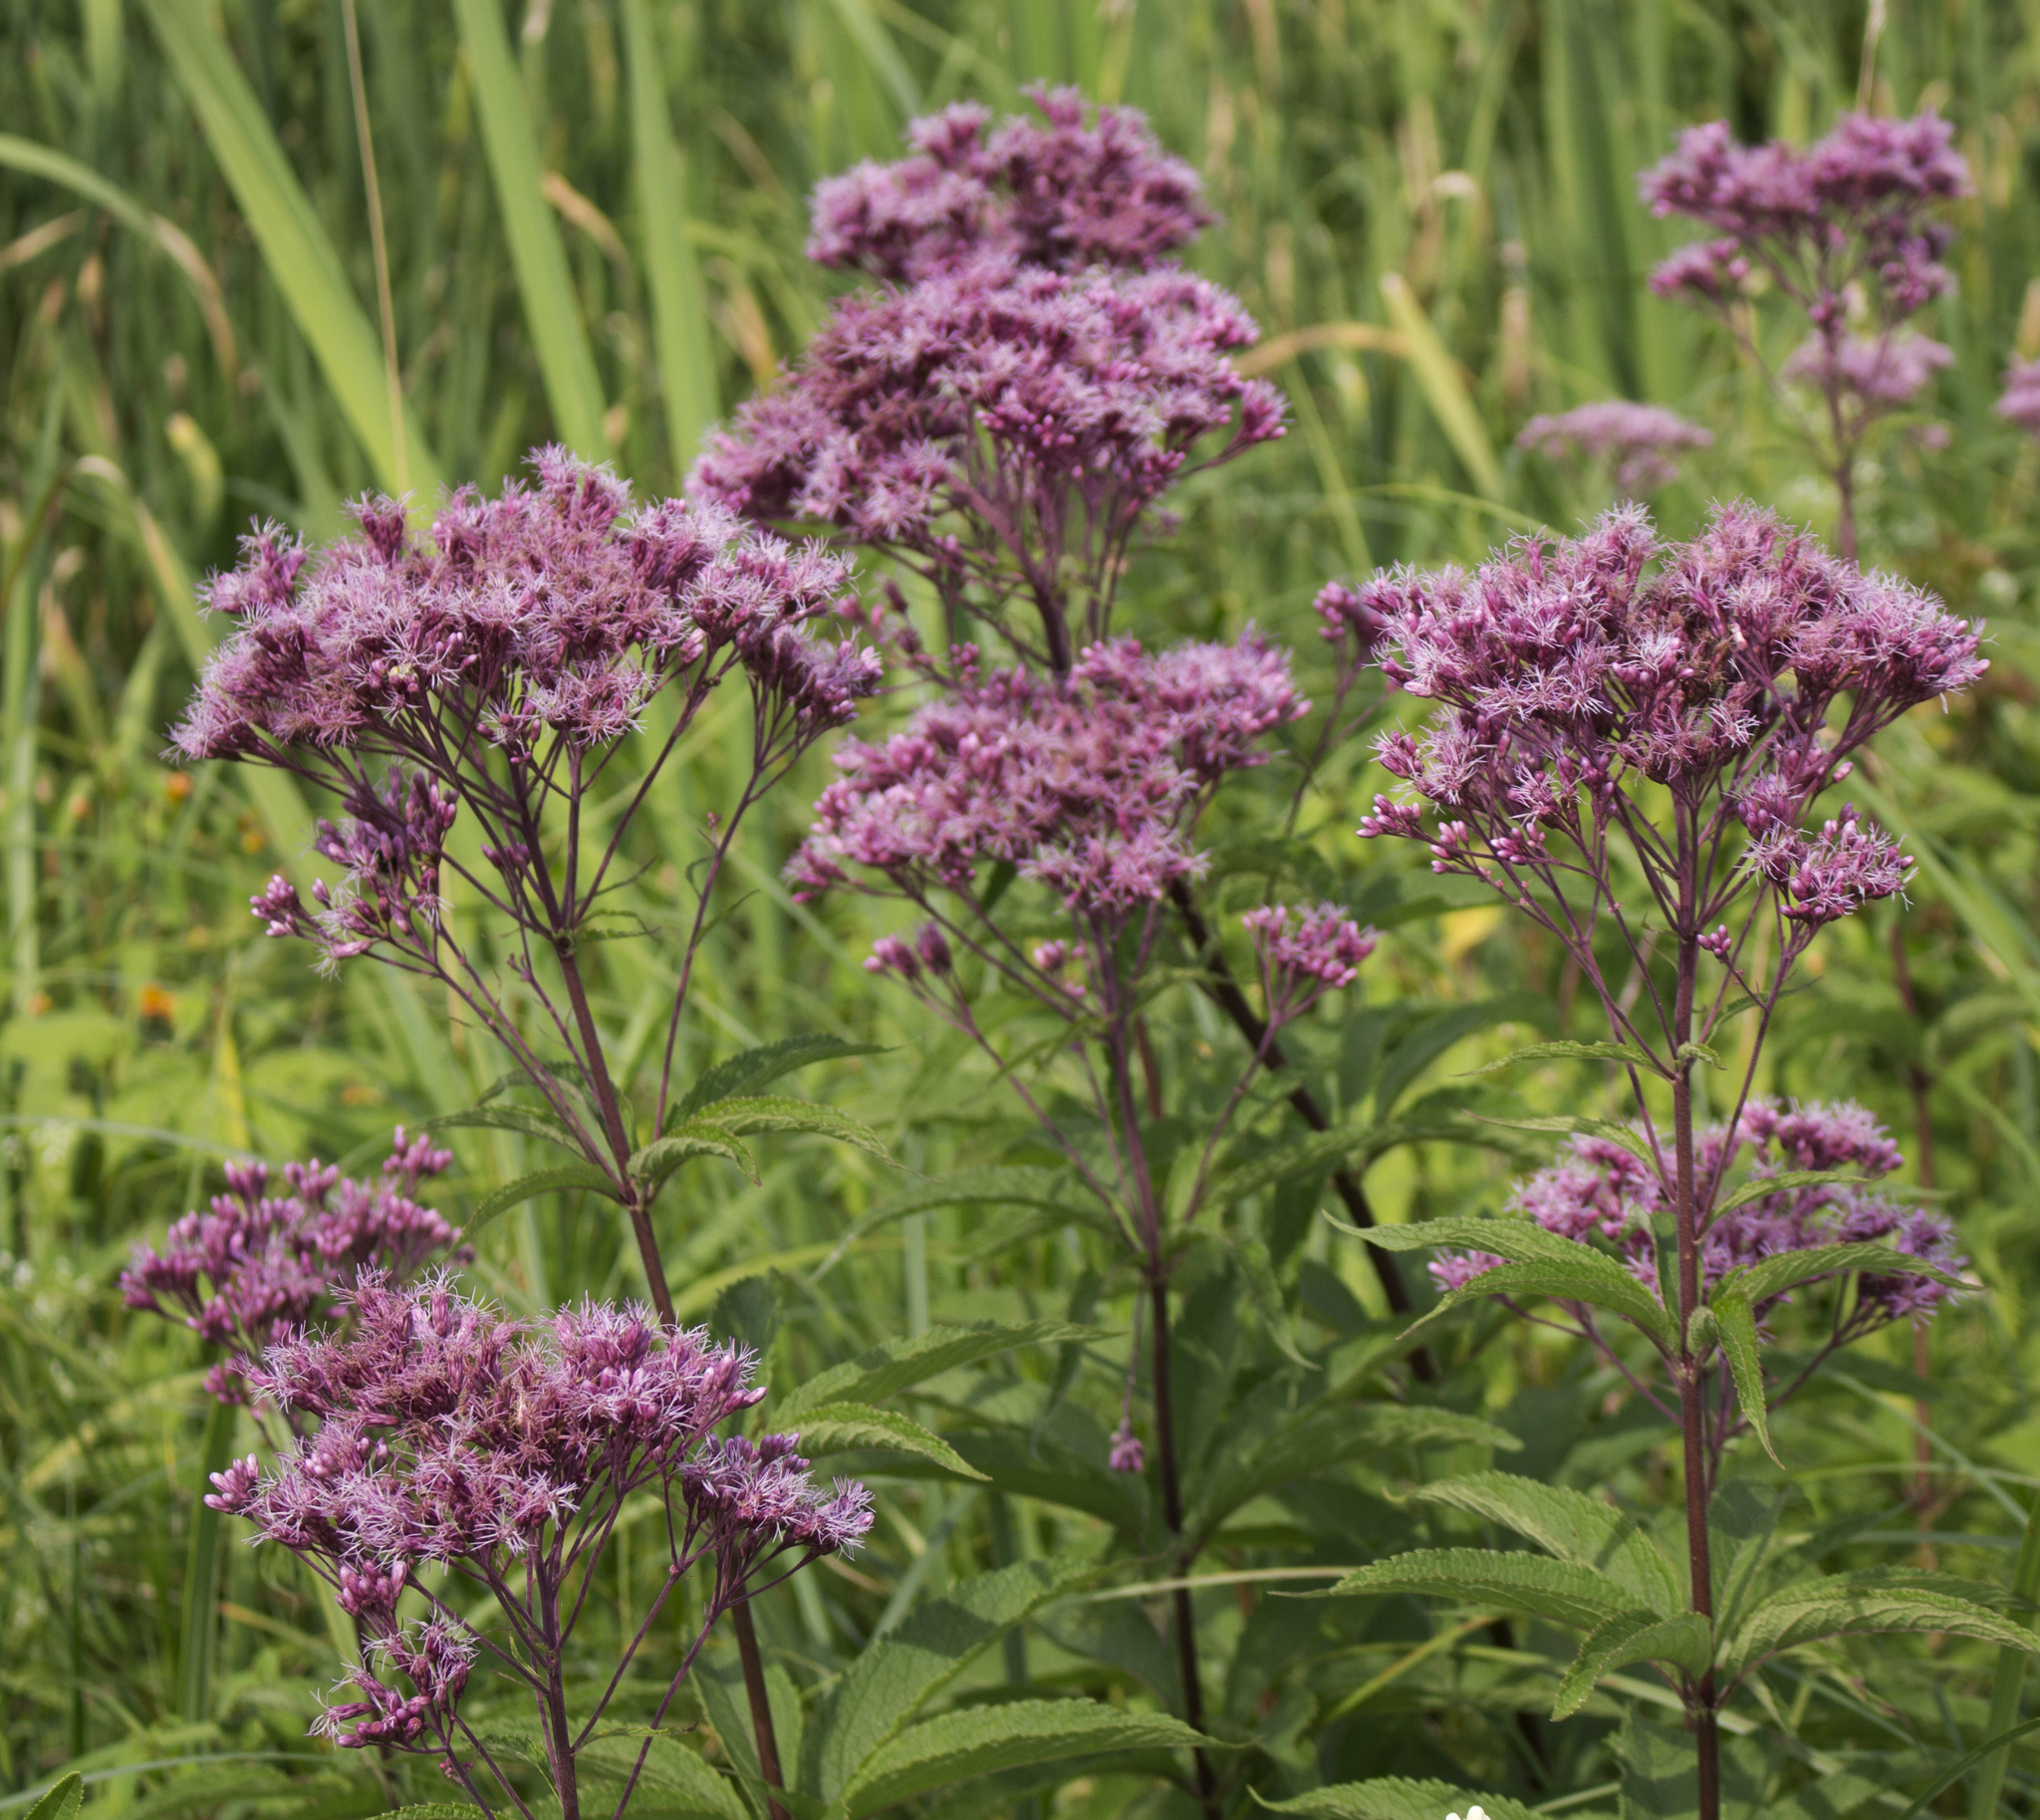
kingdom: Plantae
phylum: Tracheophyta
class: Magnoliopsida
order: Asterales
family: Asteraceae
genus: Eutrochium
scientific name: Eutrochium maculatum
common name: Spotted joe pye weed
